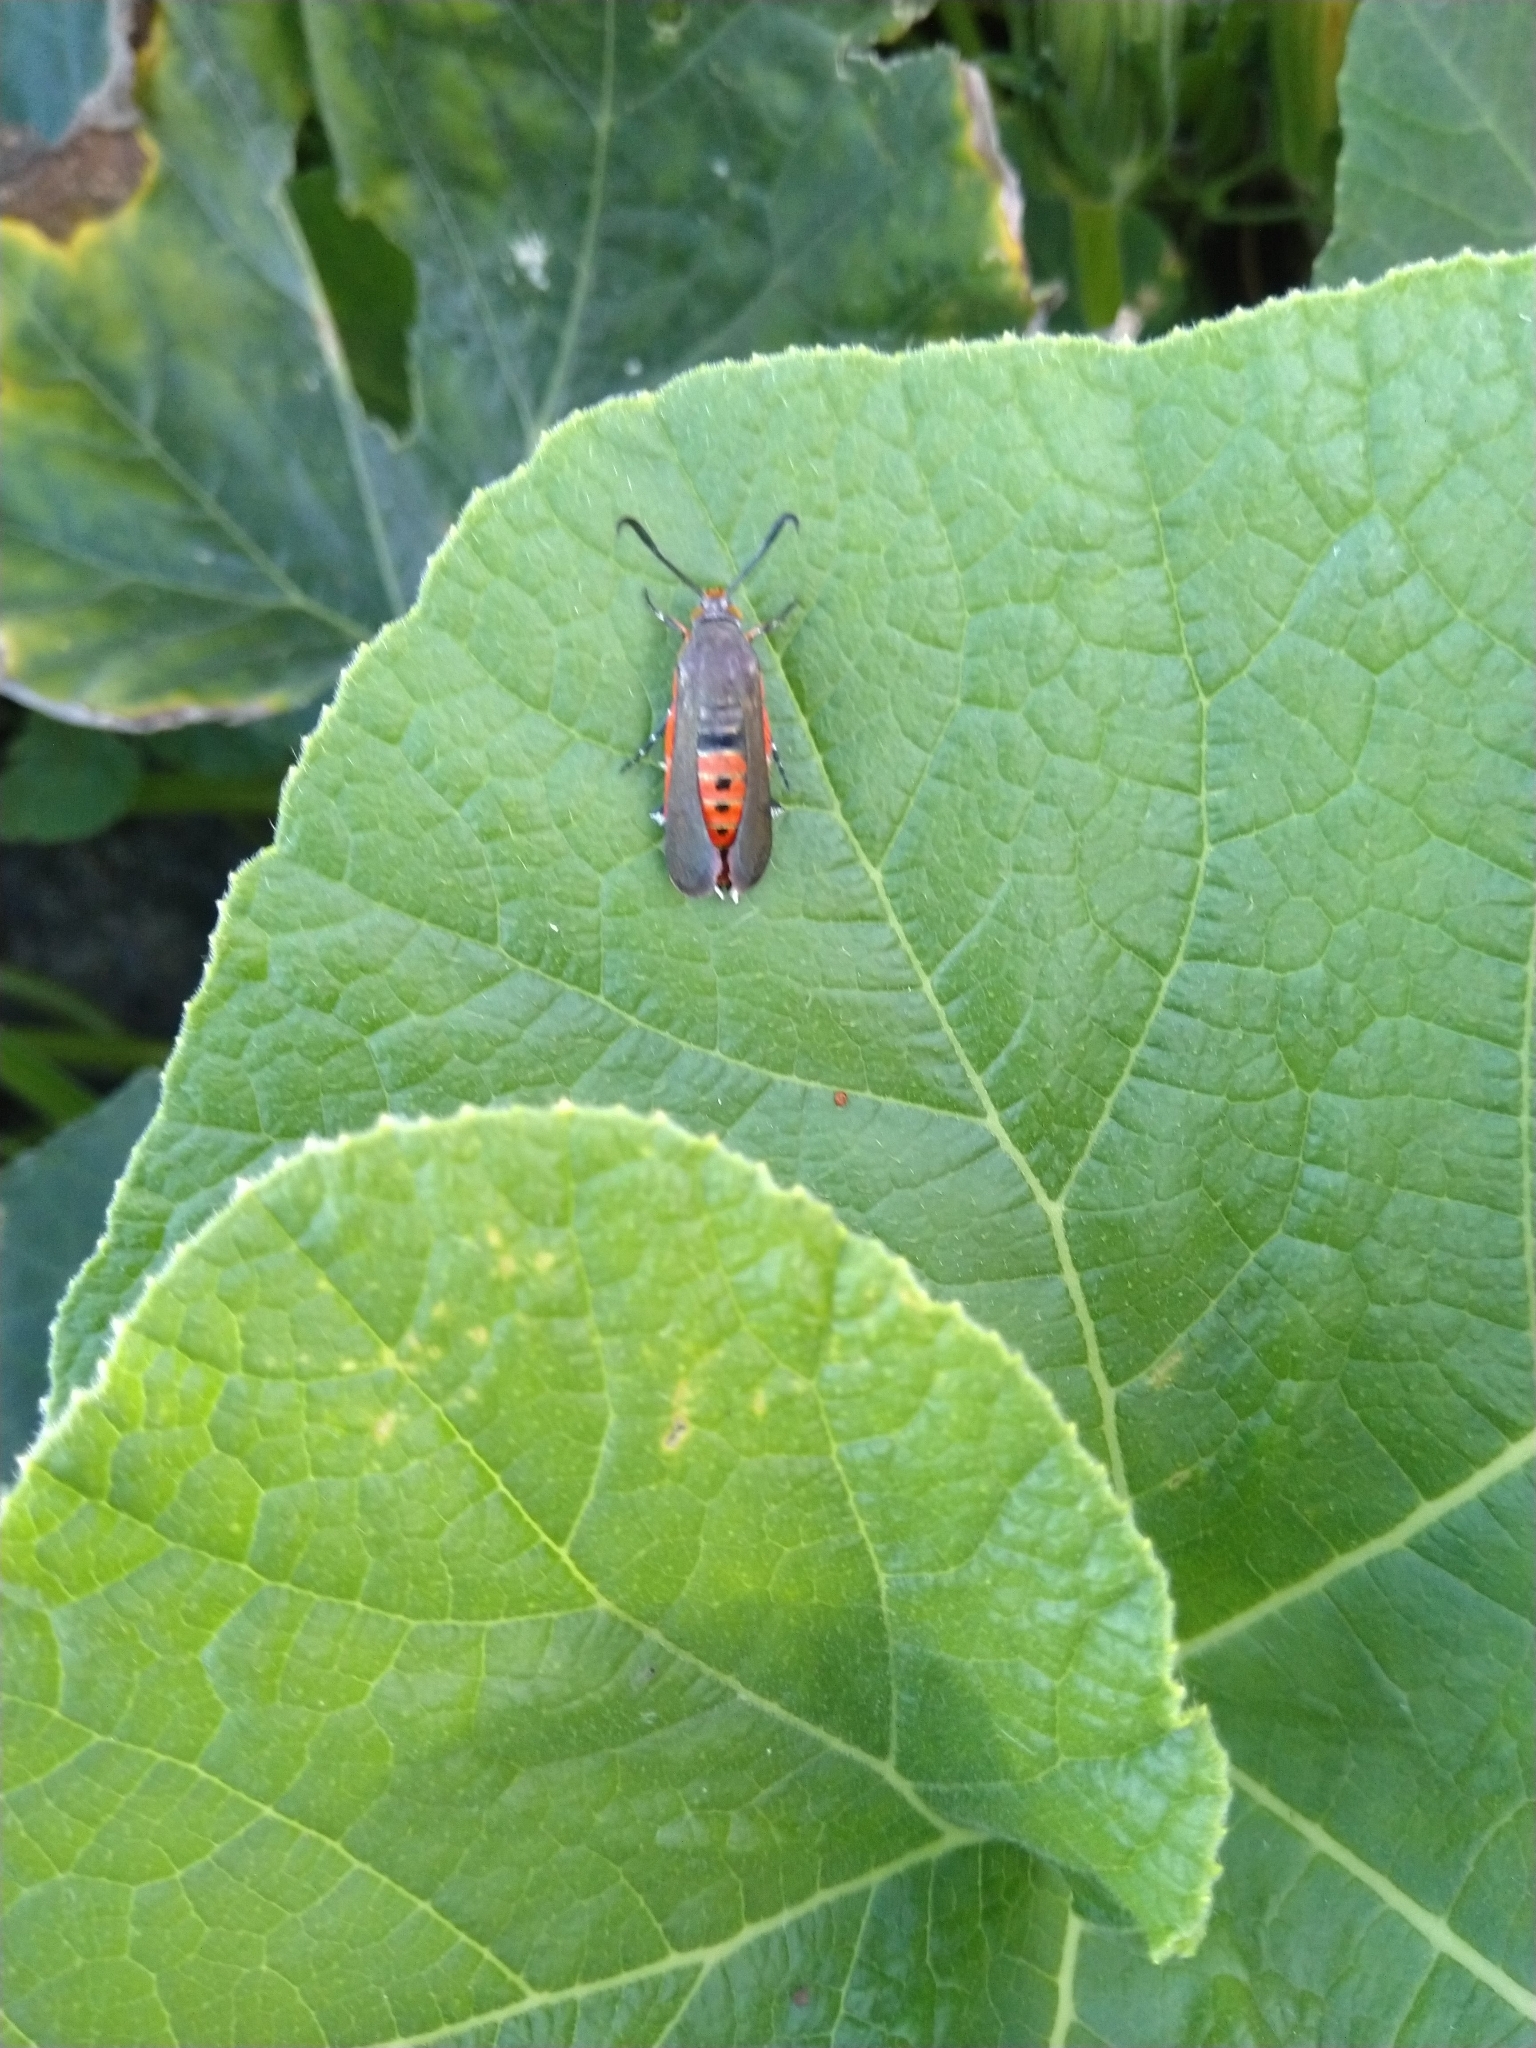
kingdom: Animalia
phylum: Arthropoda
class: Insecta
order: Lepidoptera
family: Sesiidae
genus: Eichlinia
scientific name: Eichlinia cucurbitae
